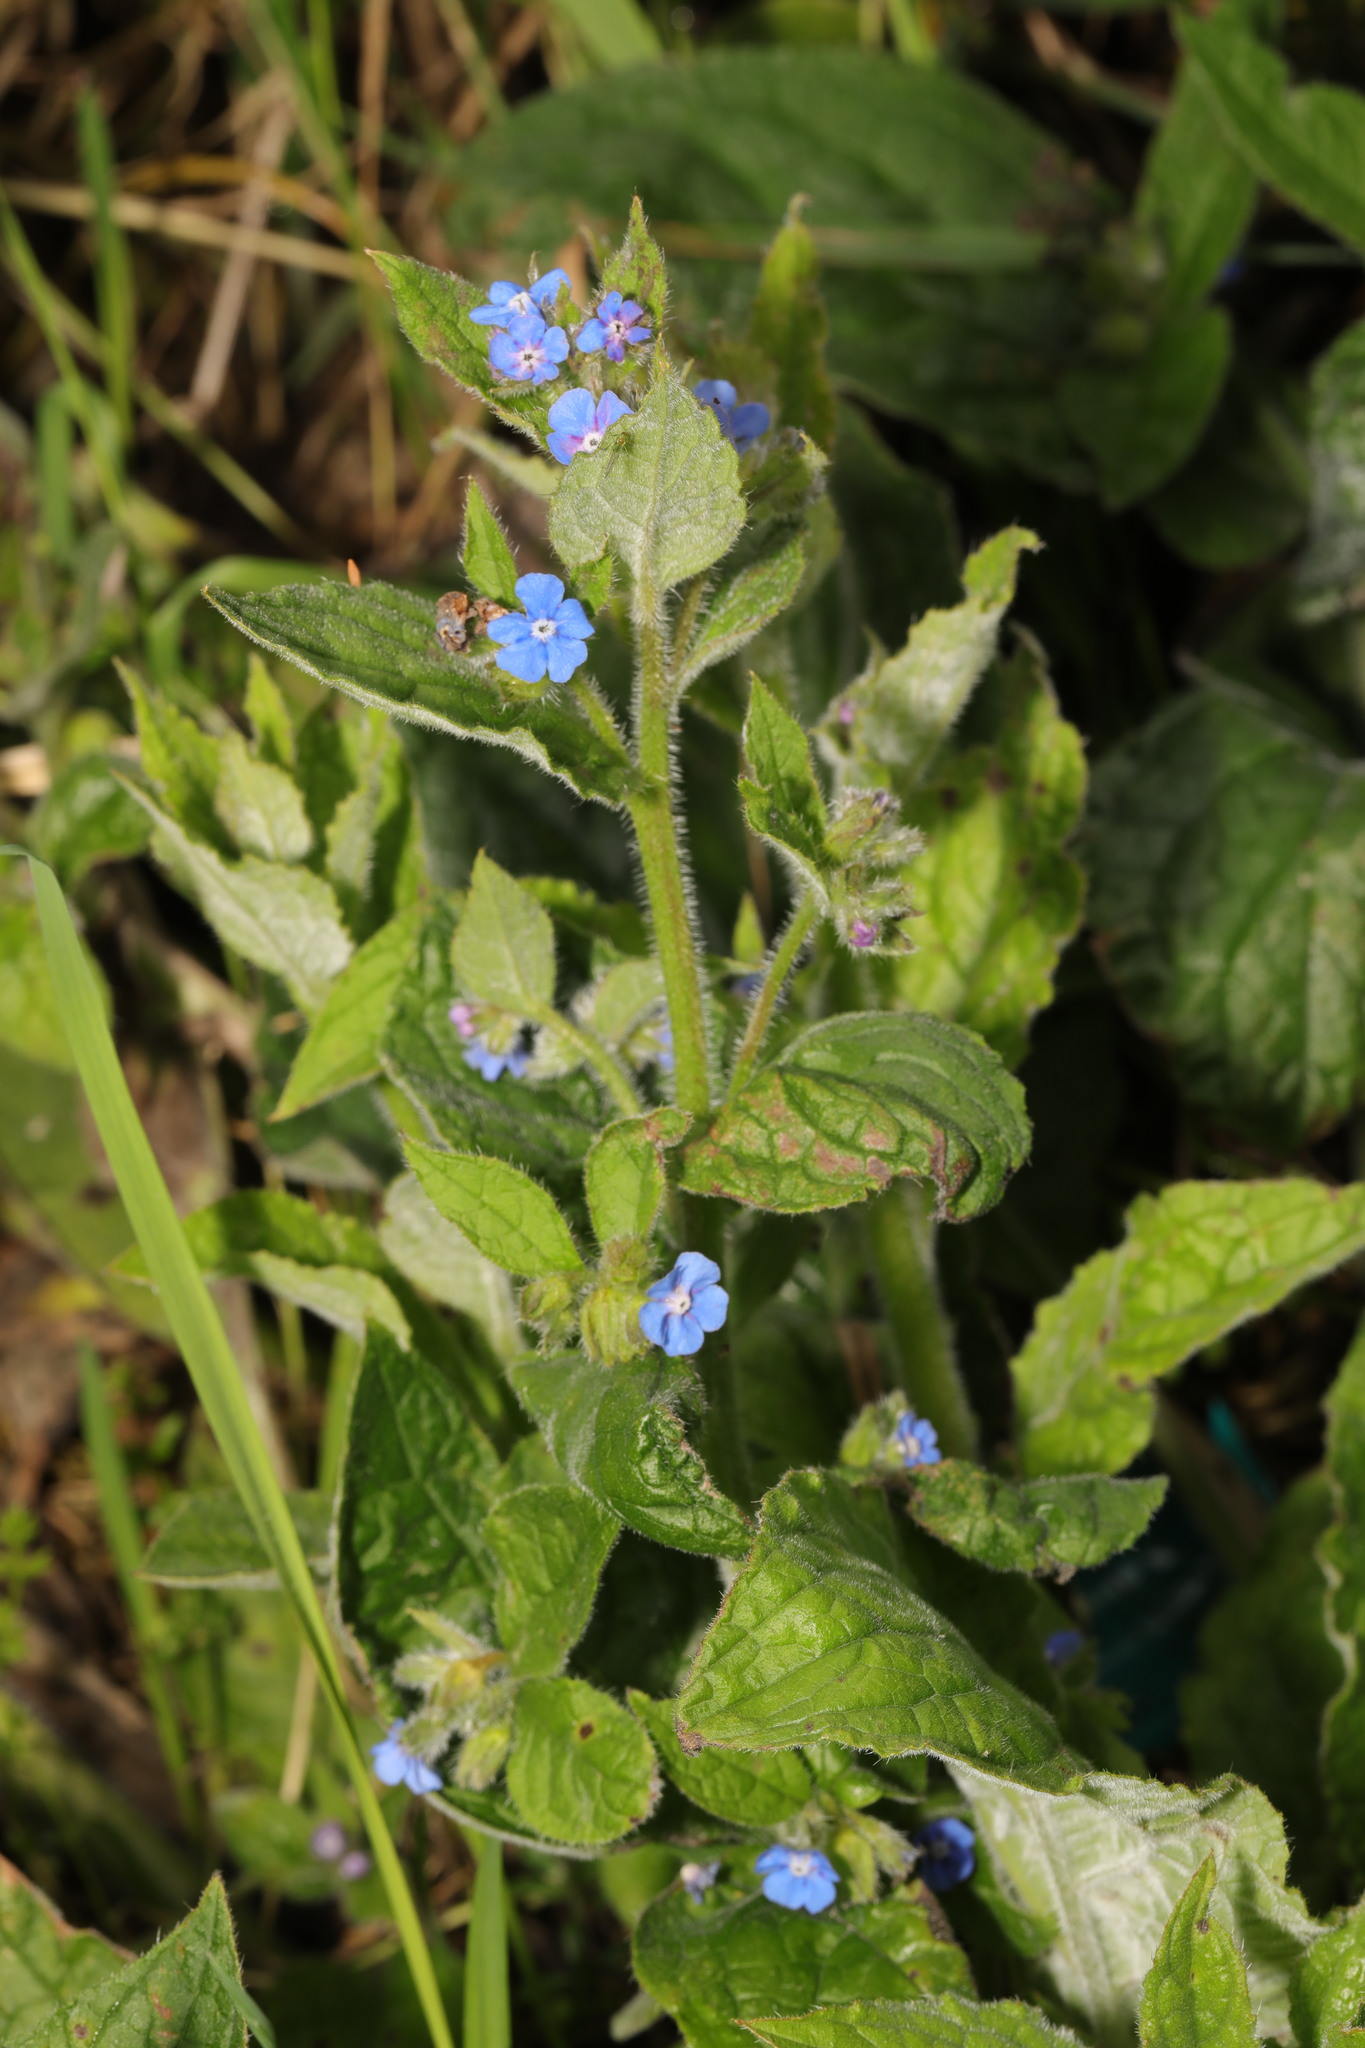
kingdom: Plantae
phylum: Tracheophyta
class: Magnoliopsida
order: Boraginales
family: Boraginaceae
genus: Pentaglottis
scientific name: Pentaglottis sempervirens
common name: Green alkanet
